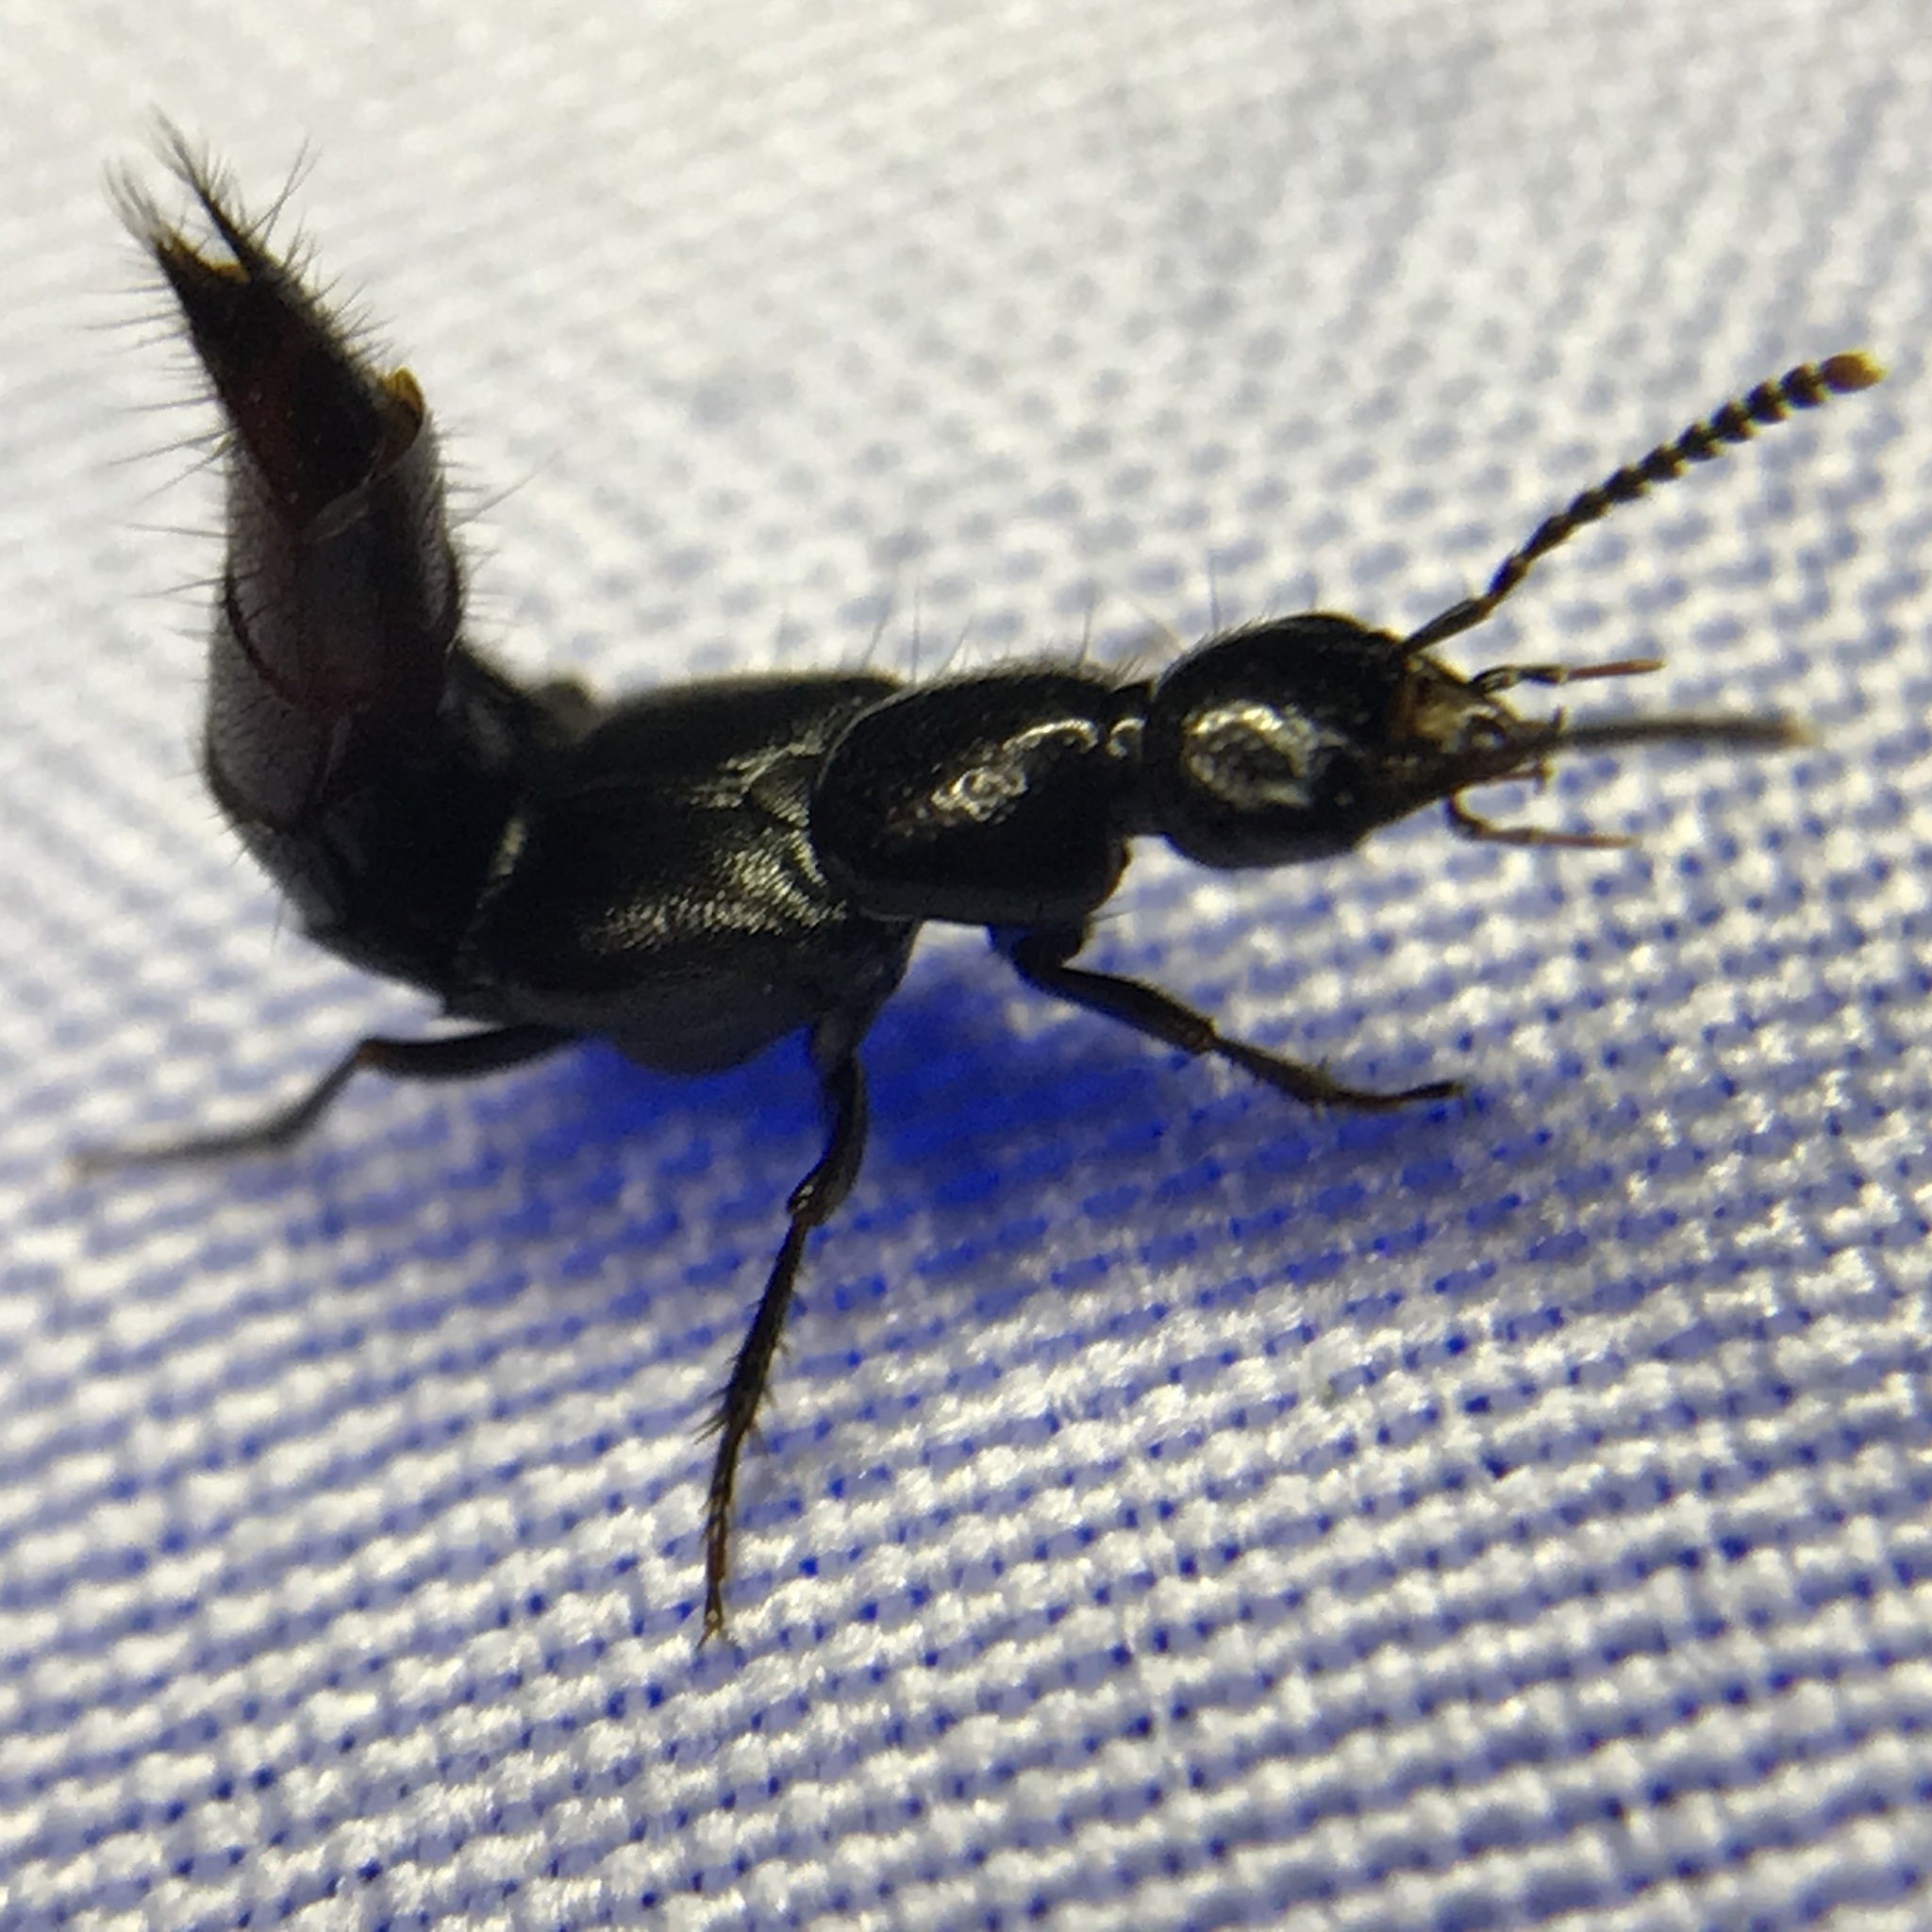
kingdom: Animalia
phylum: Arthropoda
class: Insecta
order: Coleoptera
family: Staphylinidae
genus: Hesperus
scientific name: Hesperus apicialis
